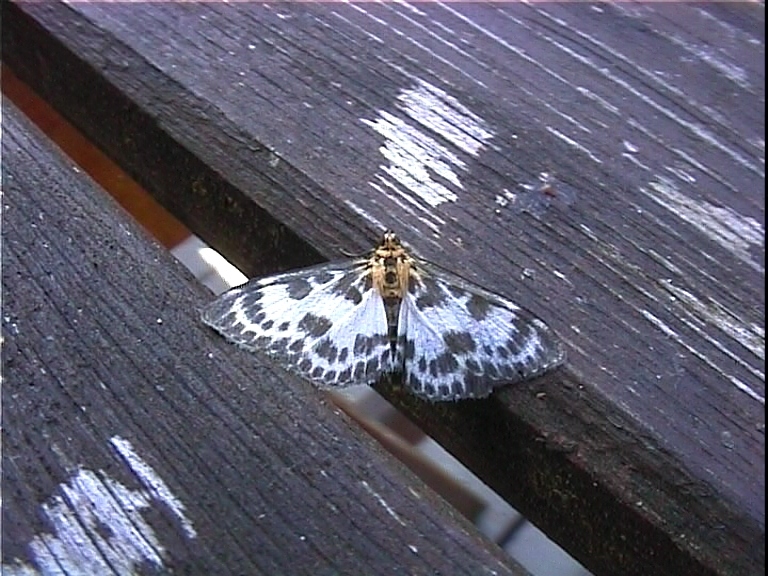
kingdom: Animalia
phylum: Arthropoda
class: Insecta
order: Lepidoptera
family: Crambidae
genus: Anania
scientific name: Anania hortulata
